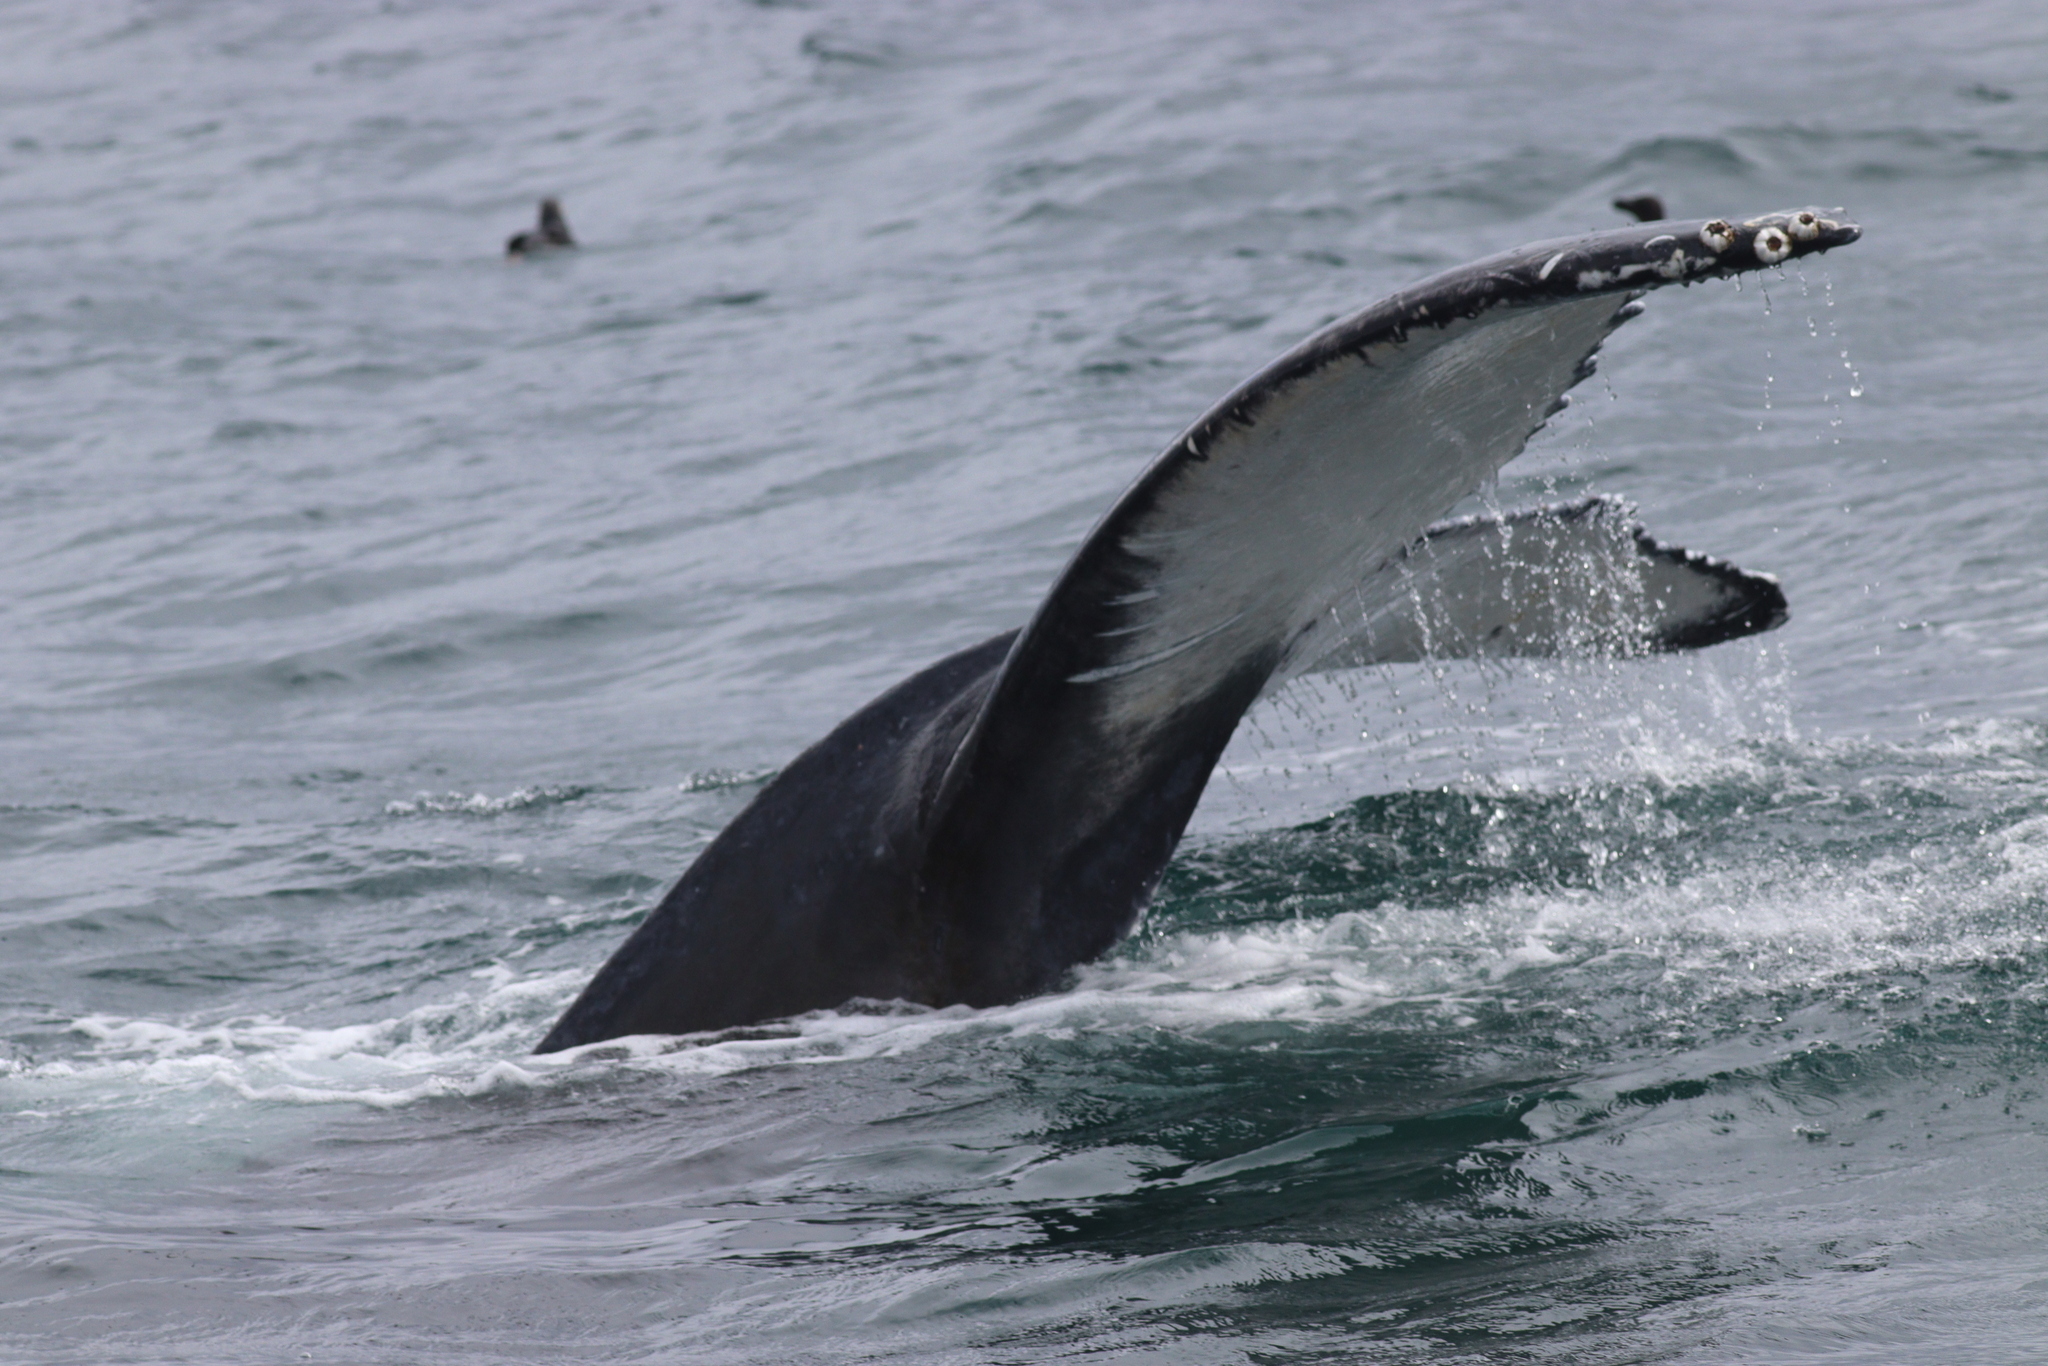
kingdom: Animalia
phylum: Chordata
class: Mammalia
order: Cetacea
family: Balaenopteridae
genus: Megaptera
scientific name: Megaptera novaeangliae
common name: Humpback whale
